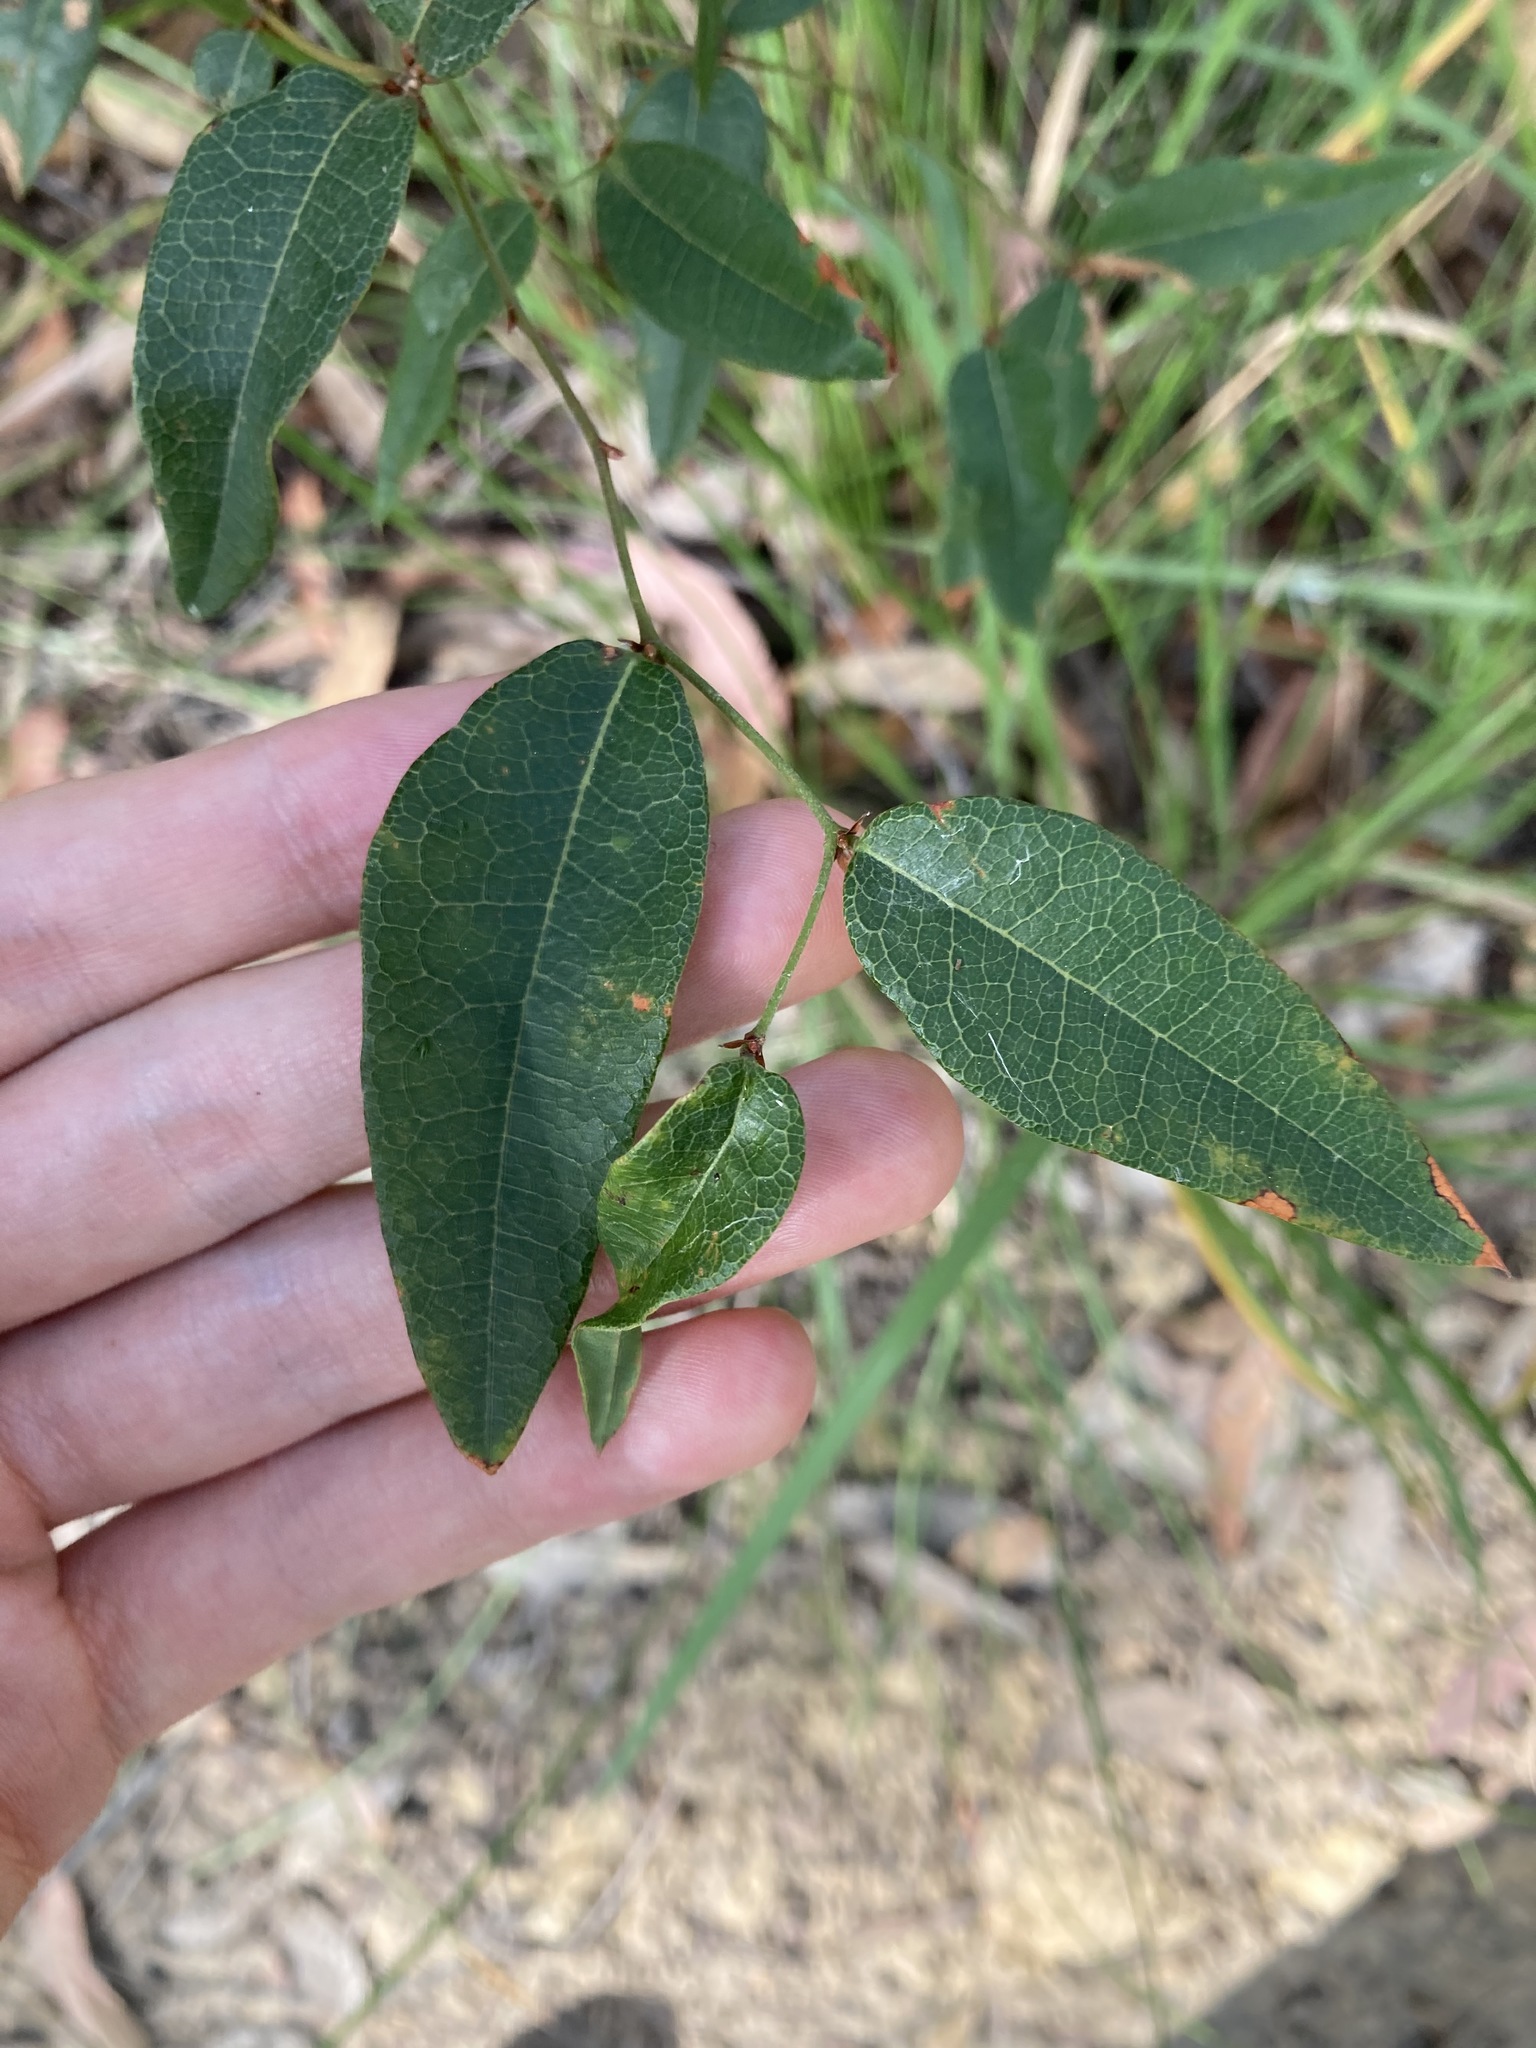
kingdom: Plantae
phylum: Tracheophyta
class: Magnoliopsida
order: Fabales
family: Fabaceae
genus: Platylobium
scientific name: Platylobium formosum
